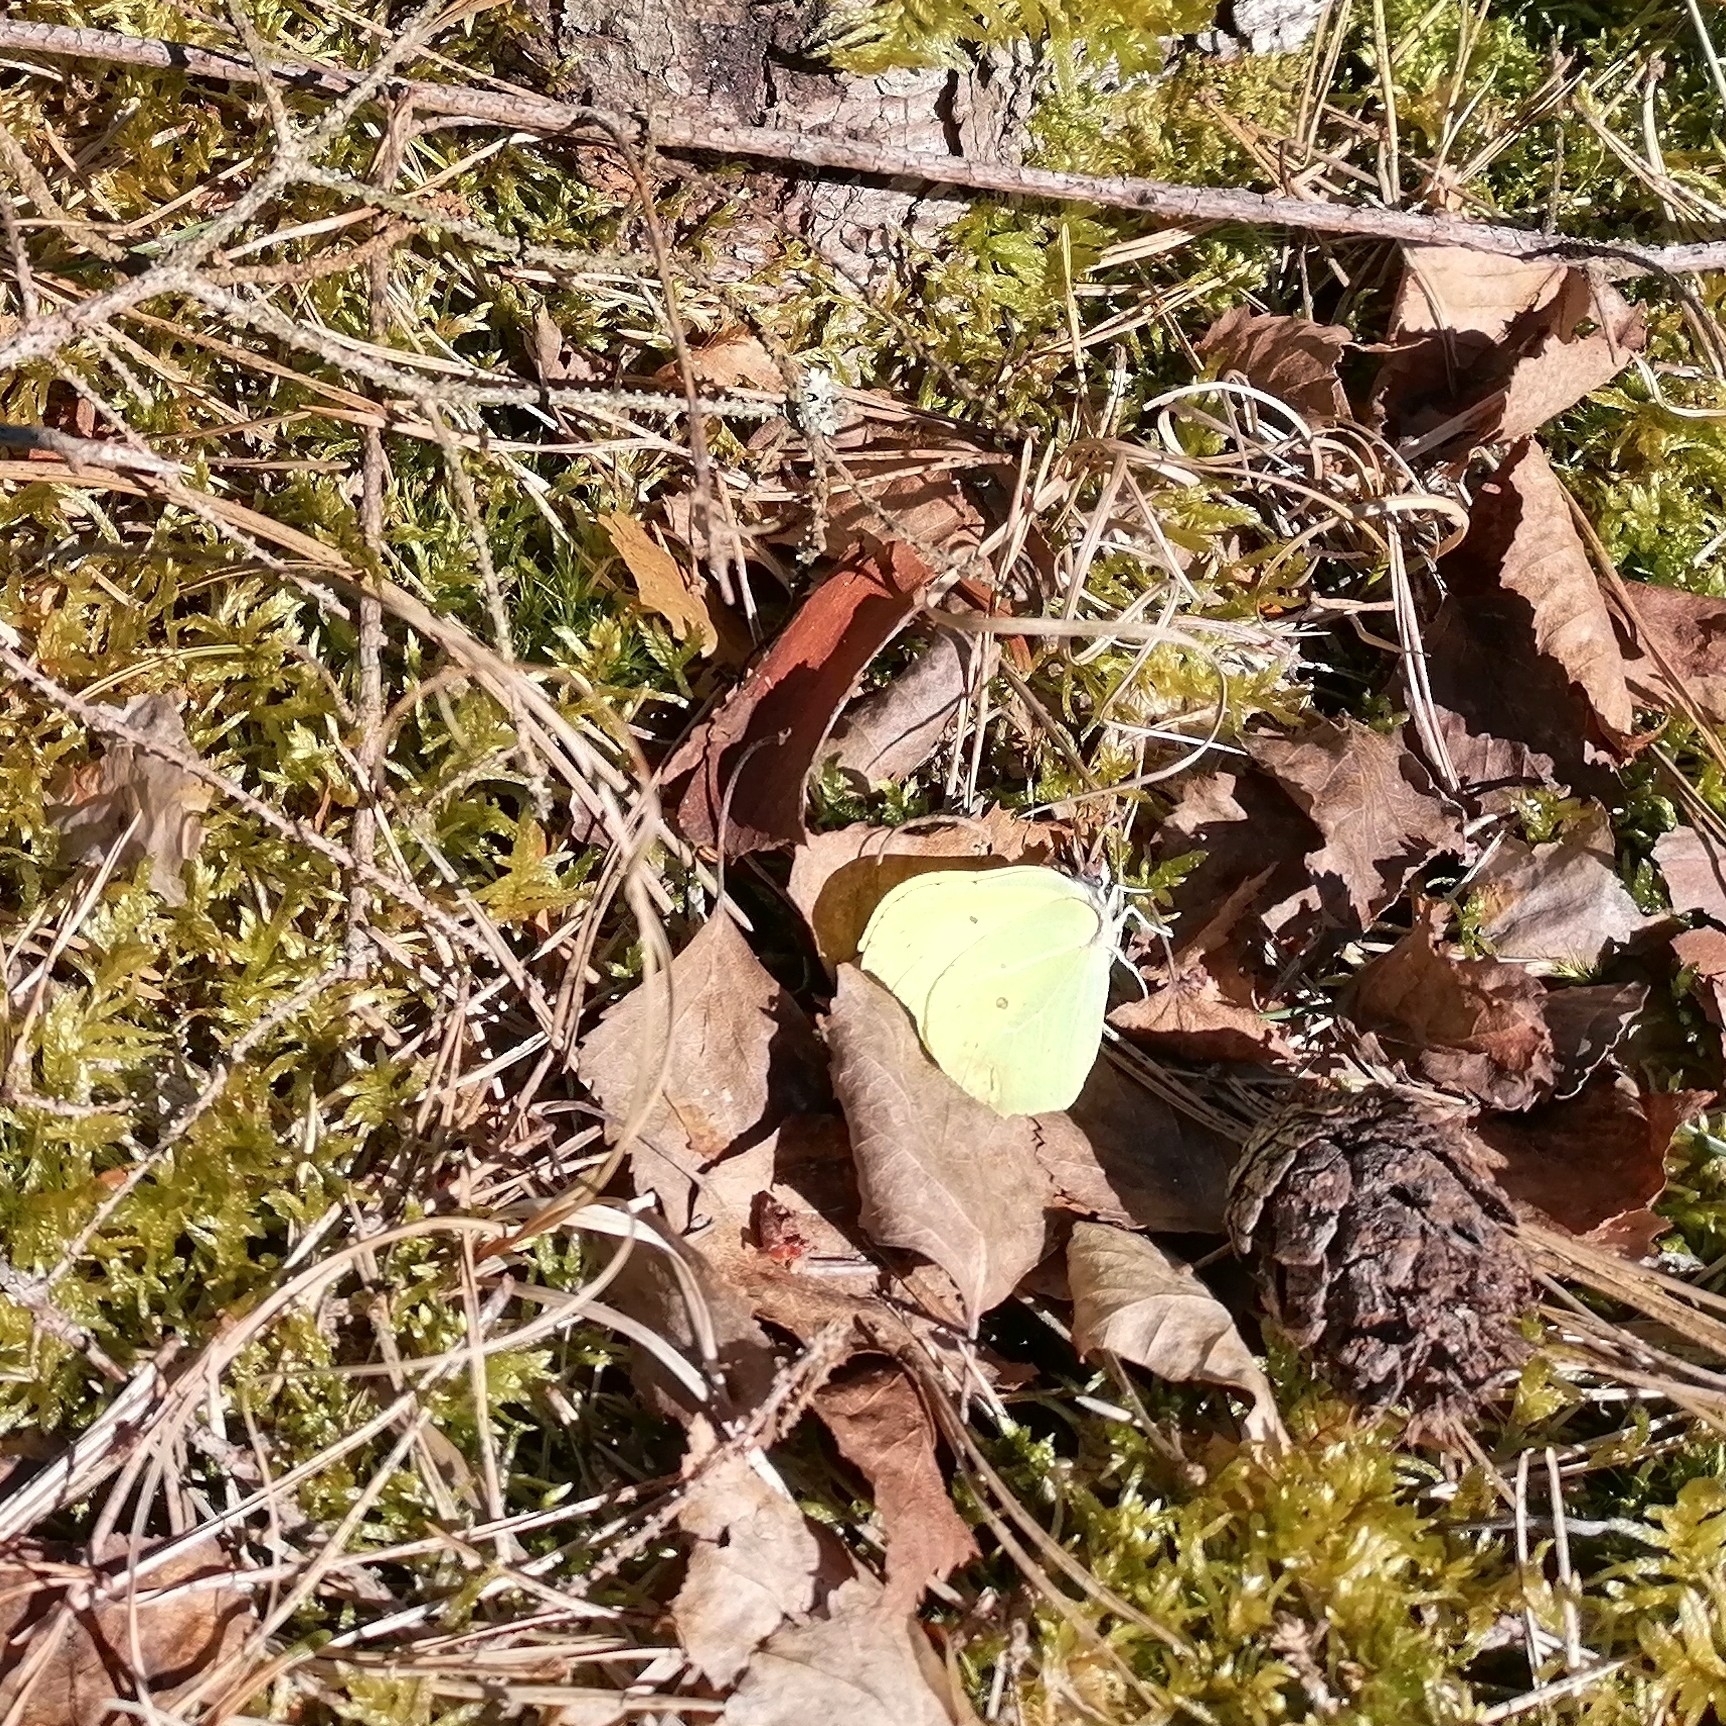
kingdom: Animalia
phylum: Arthropoda
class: Insecta
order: Lepidoptera
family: Pieridae
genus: Gonepteryx
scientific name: Gonepteryx rhamni
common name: Brimstone
